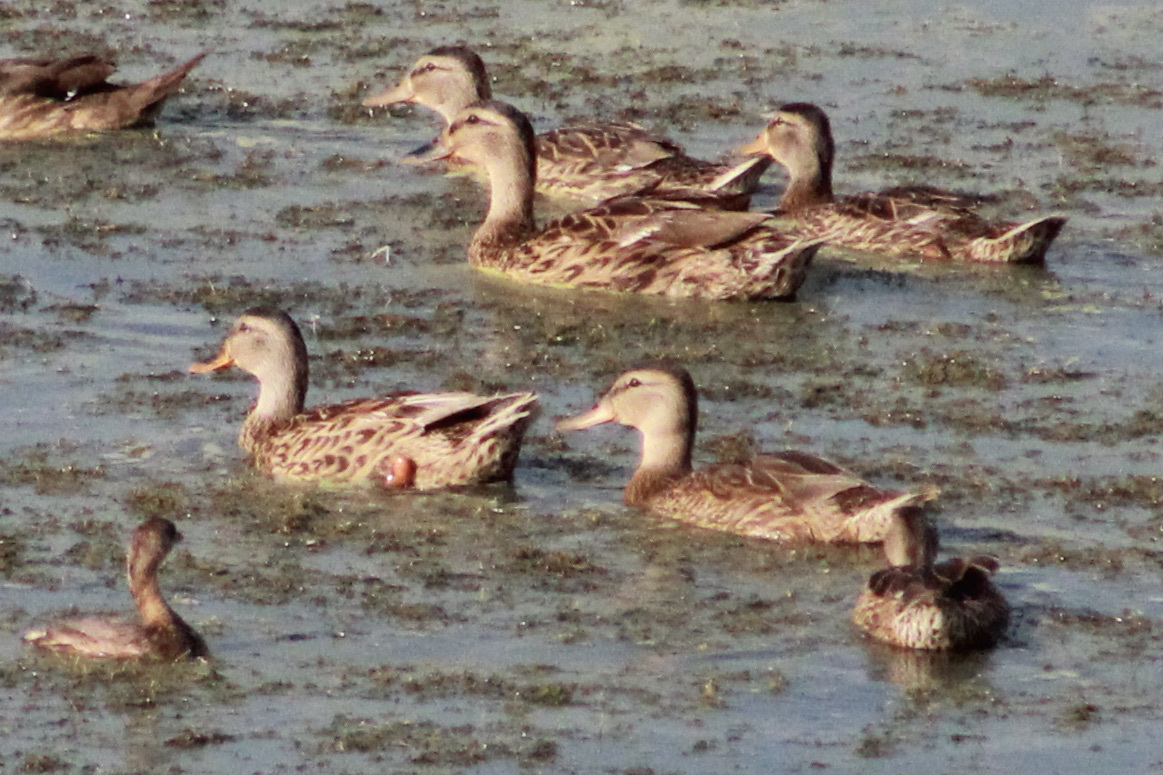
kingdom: Animalia
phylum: Chordata
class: Aves
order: Anseriformes
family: Anatidae
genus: Anas
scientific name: Anas platyrhynchos
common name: Mallard
